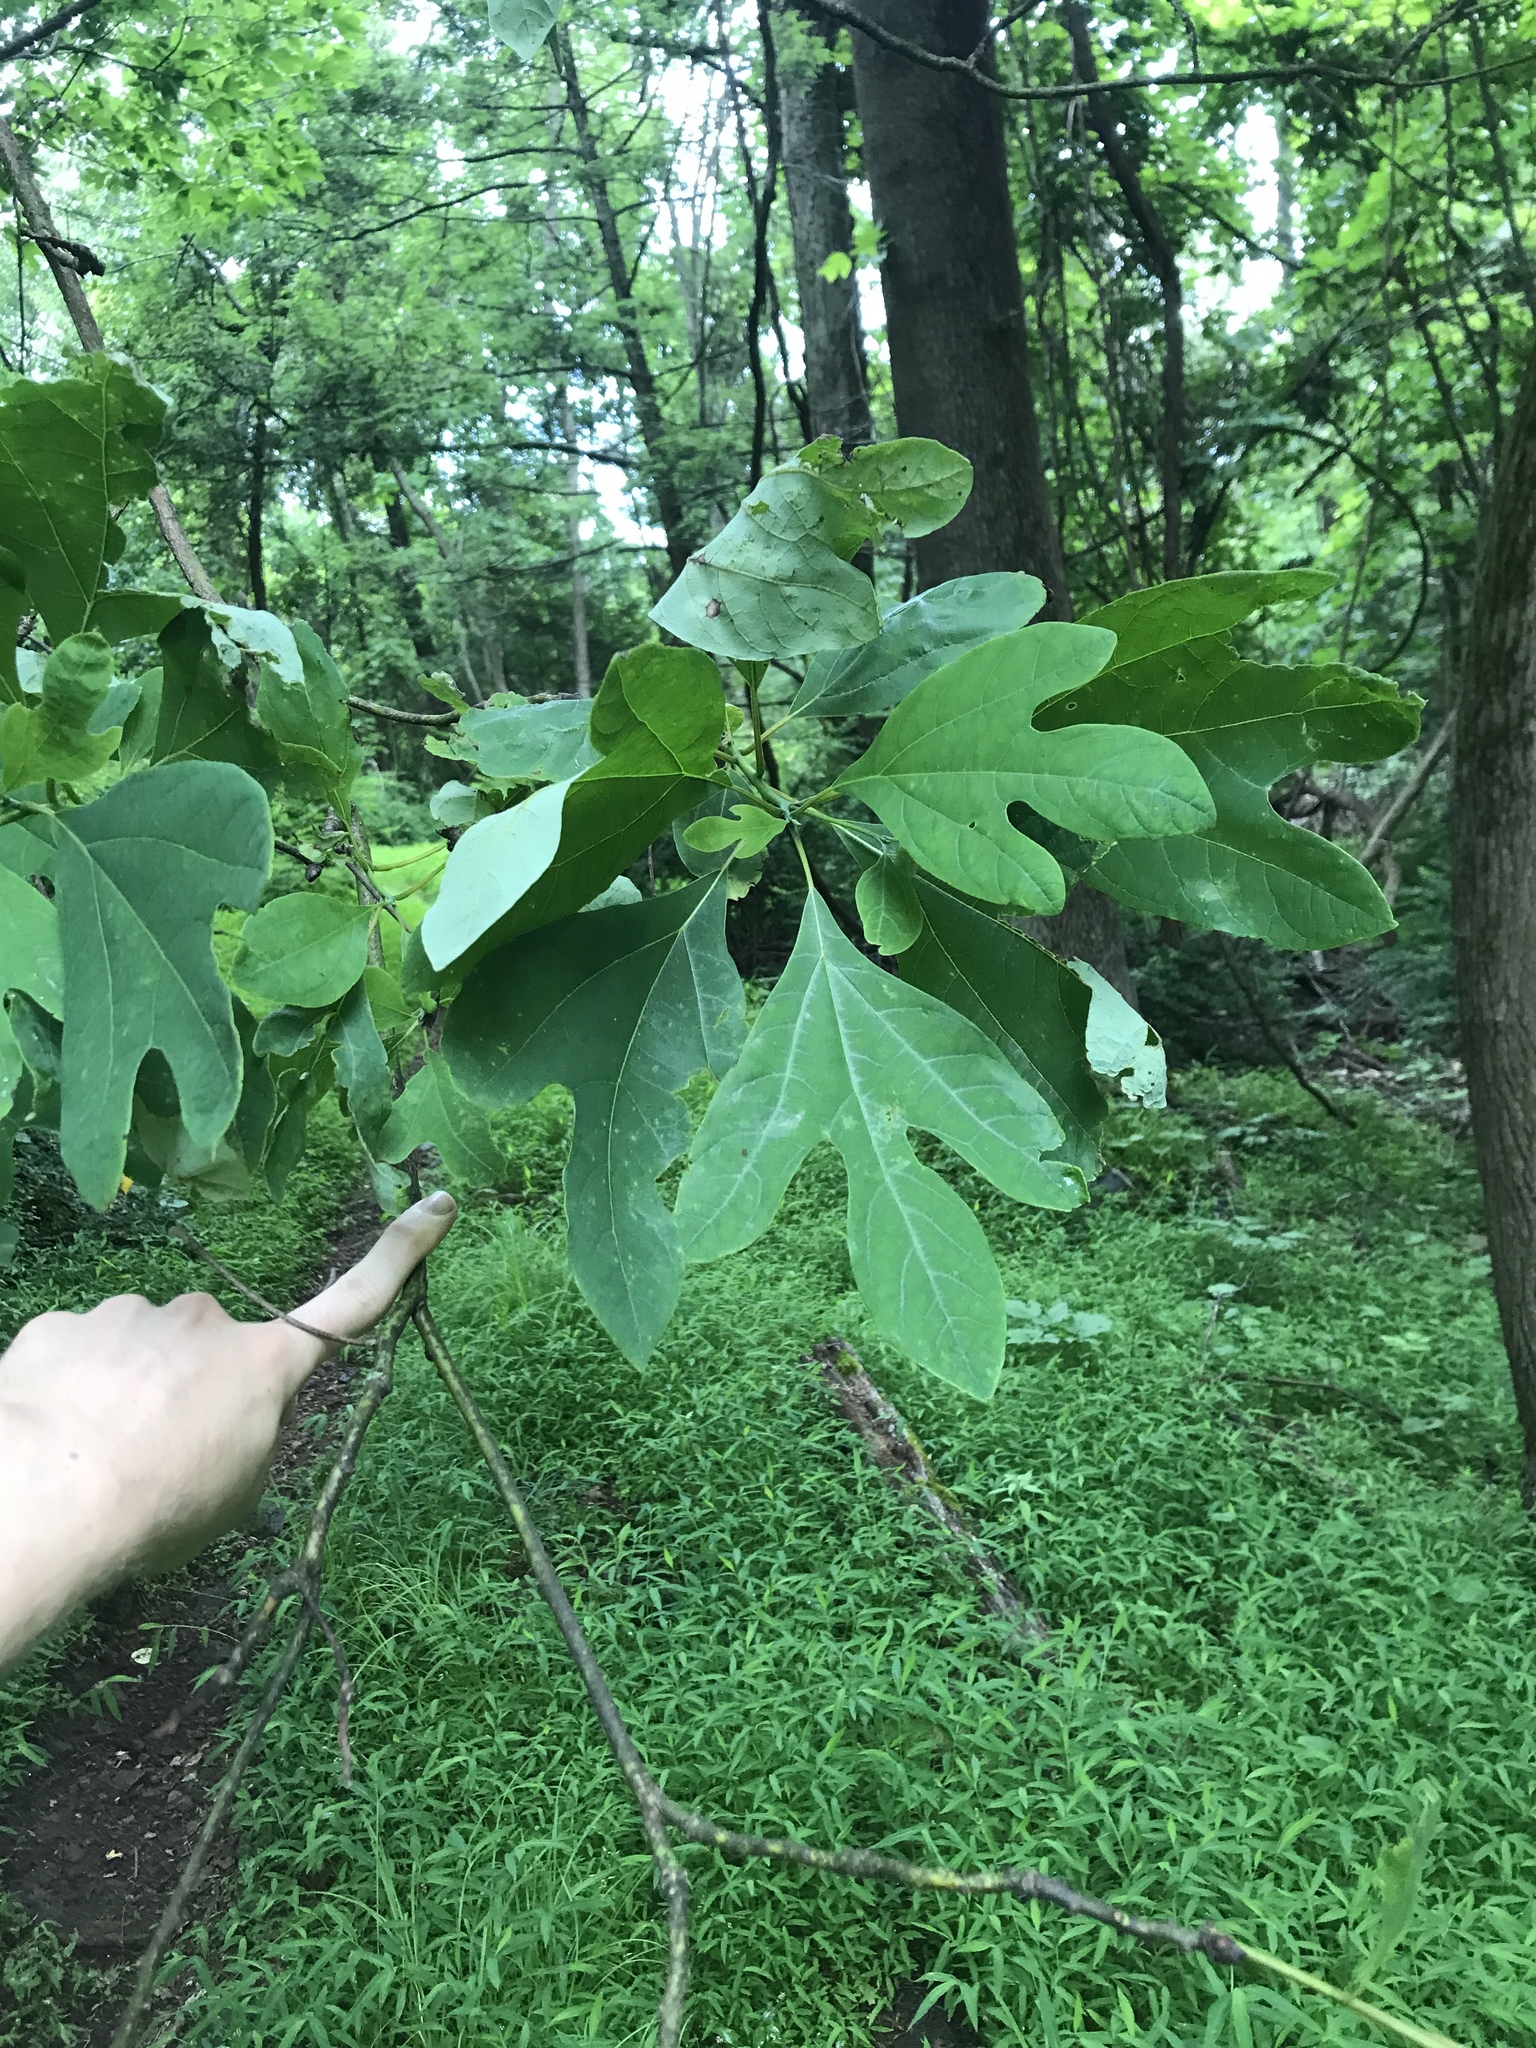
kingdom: Plantae
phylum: Tracheophyta
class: Magnoliopsida
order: Laurales
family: Lauraceae
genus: Sassafras
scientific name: Sassafras albidum
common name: Sassafras
